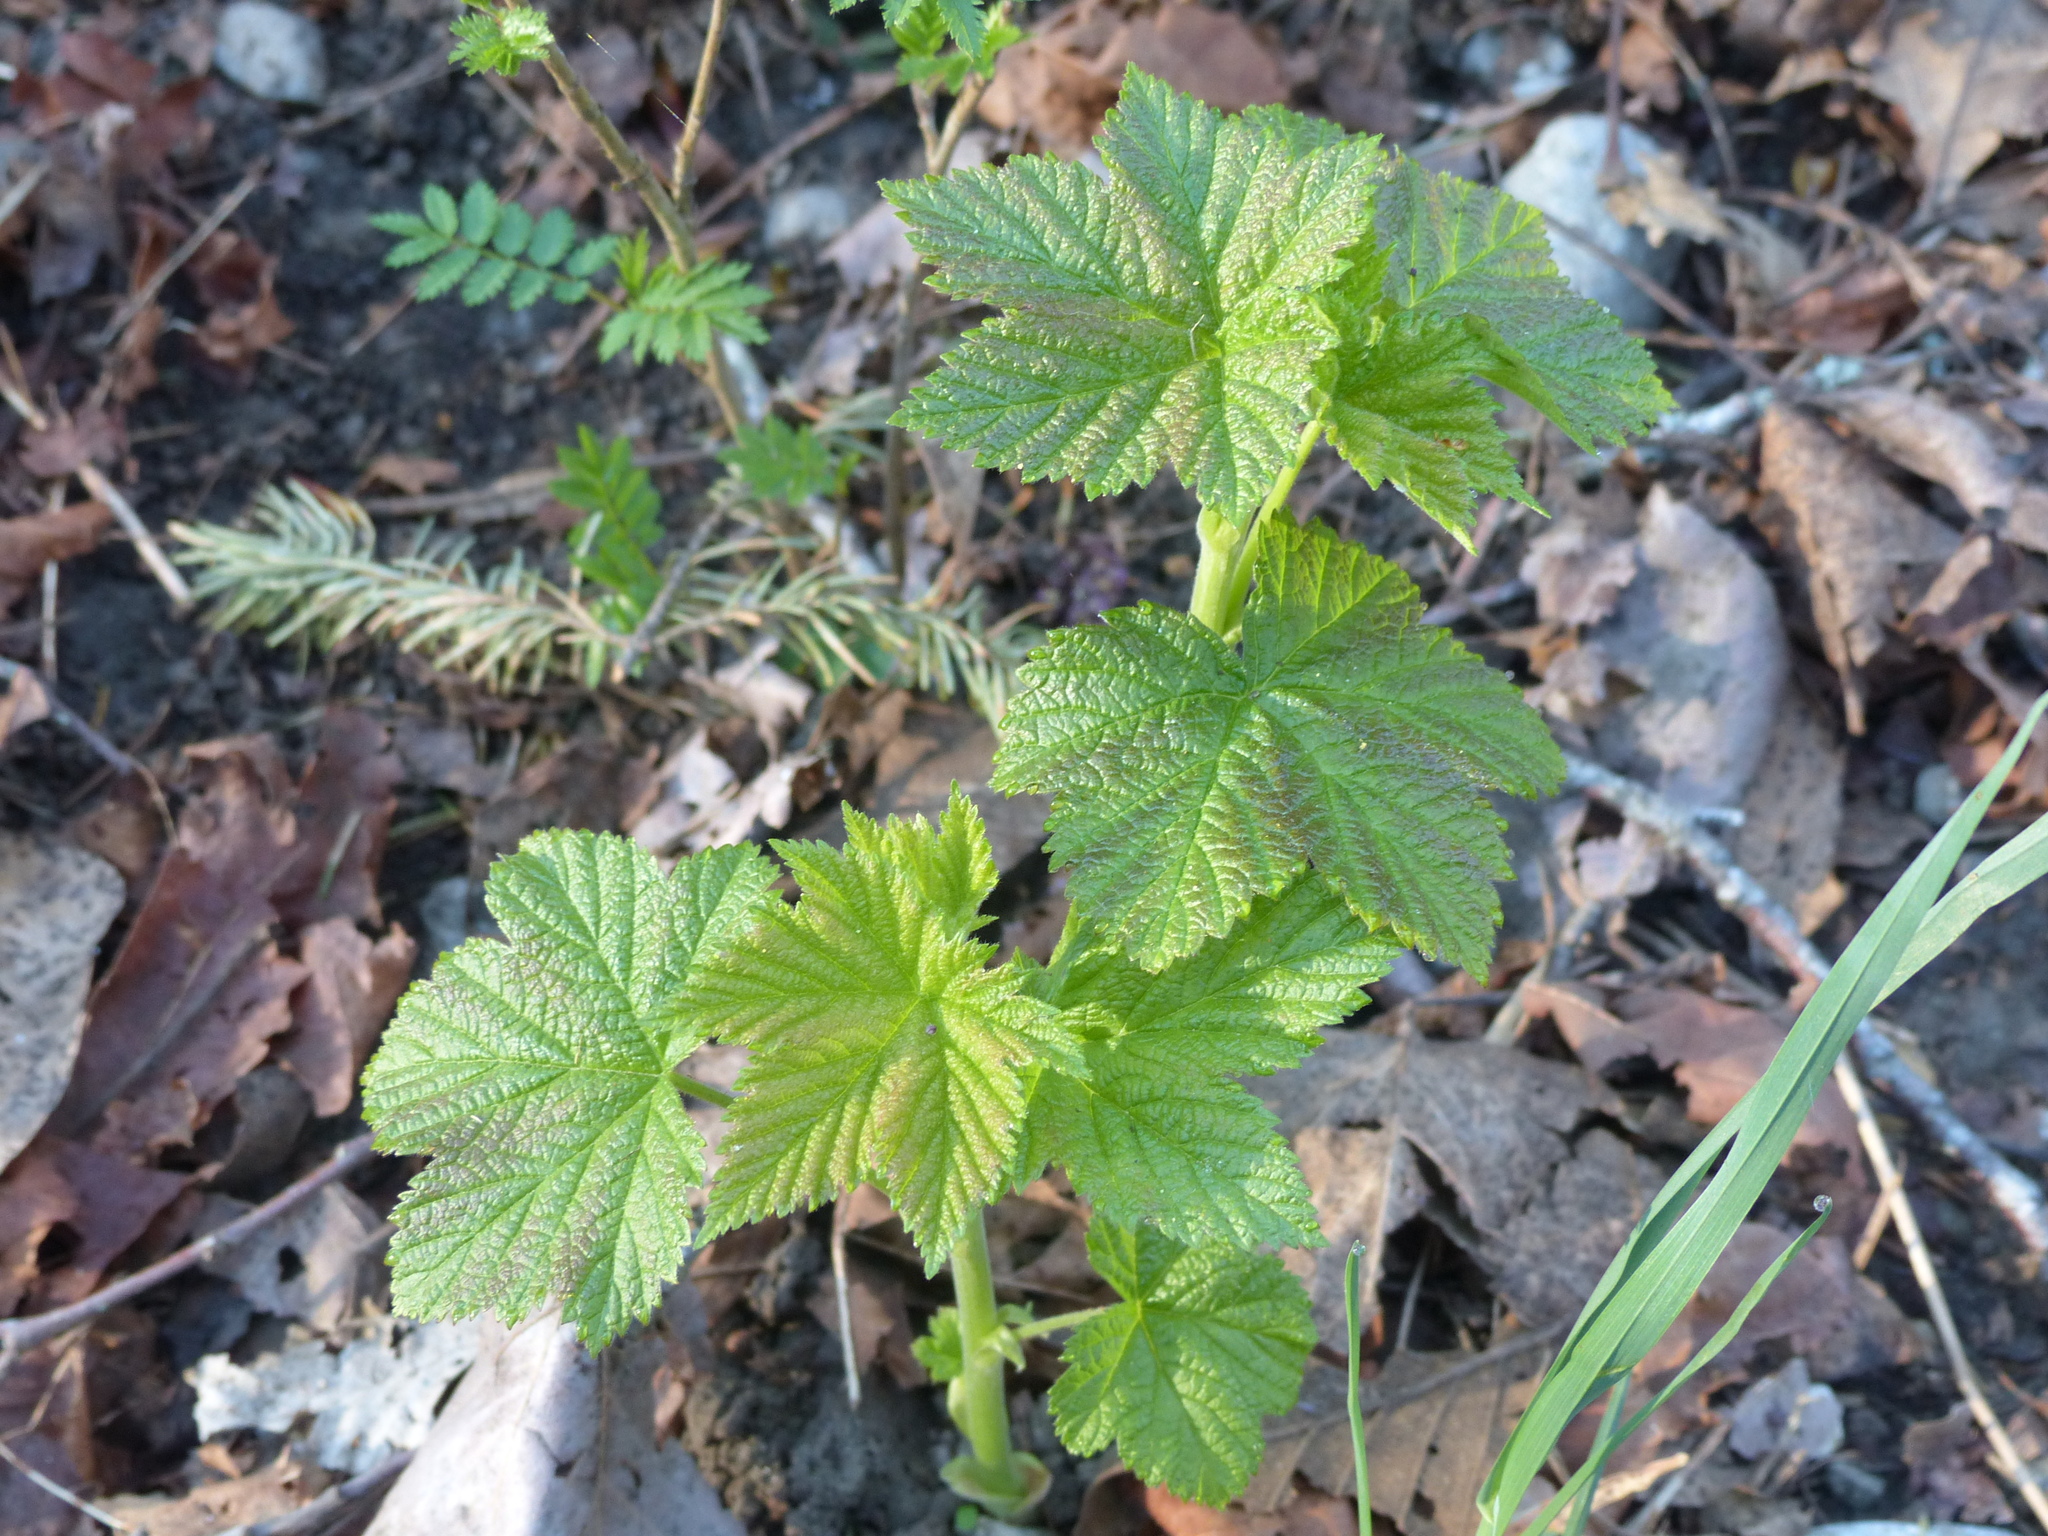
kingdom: Plantae
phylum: Tracheophyta
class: Magnoliopsida
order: Rosales
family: Rosaceae
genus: Rubus
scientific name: Rubus parviflorus
